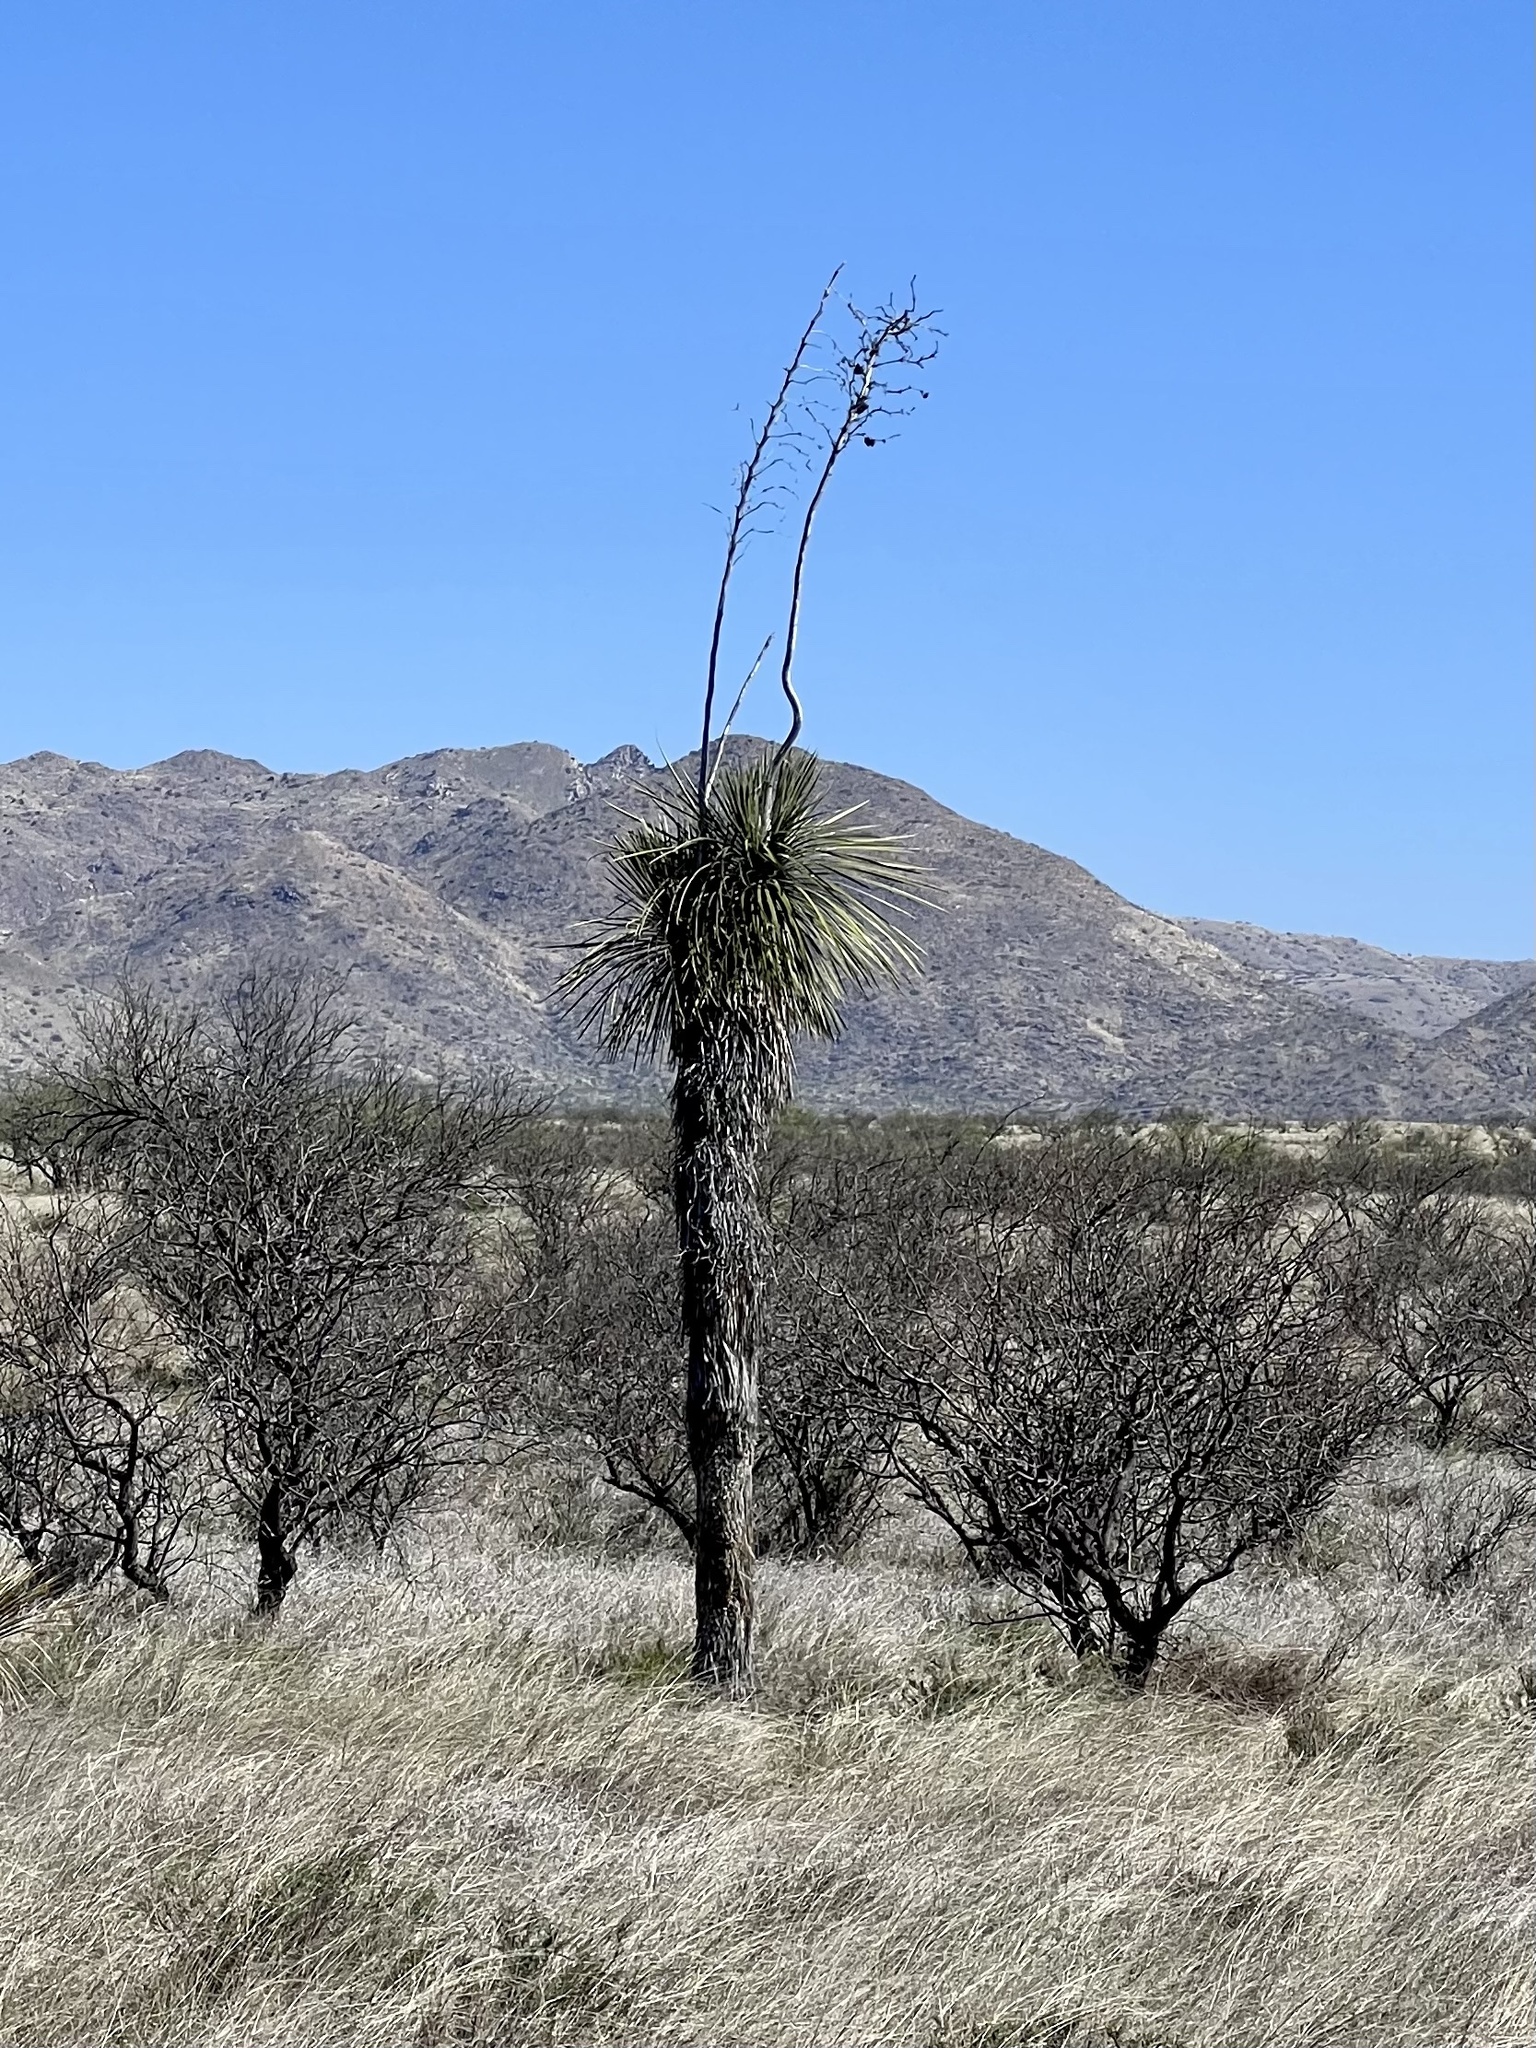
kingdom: Plantae
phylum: Tracheophyta
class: Liliopsida
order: Asparagales
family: Asparagaceae
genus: Yucca
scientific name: Yucca elata
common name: Palmella
